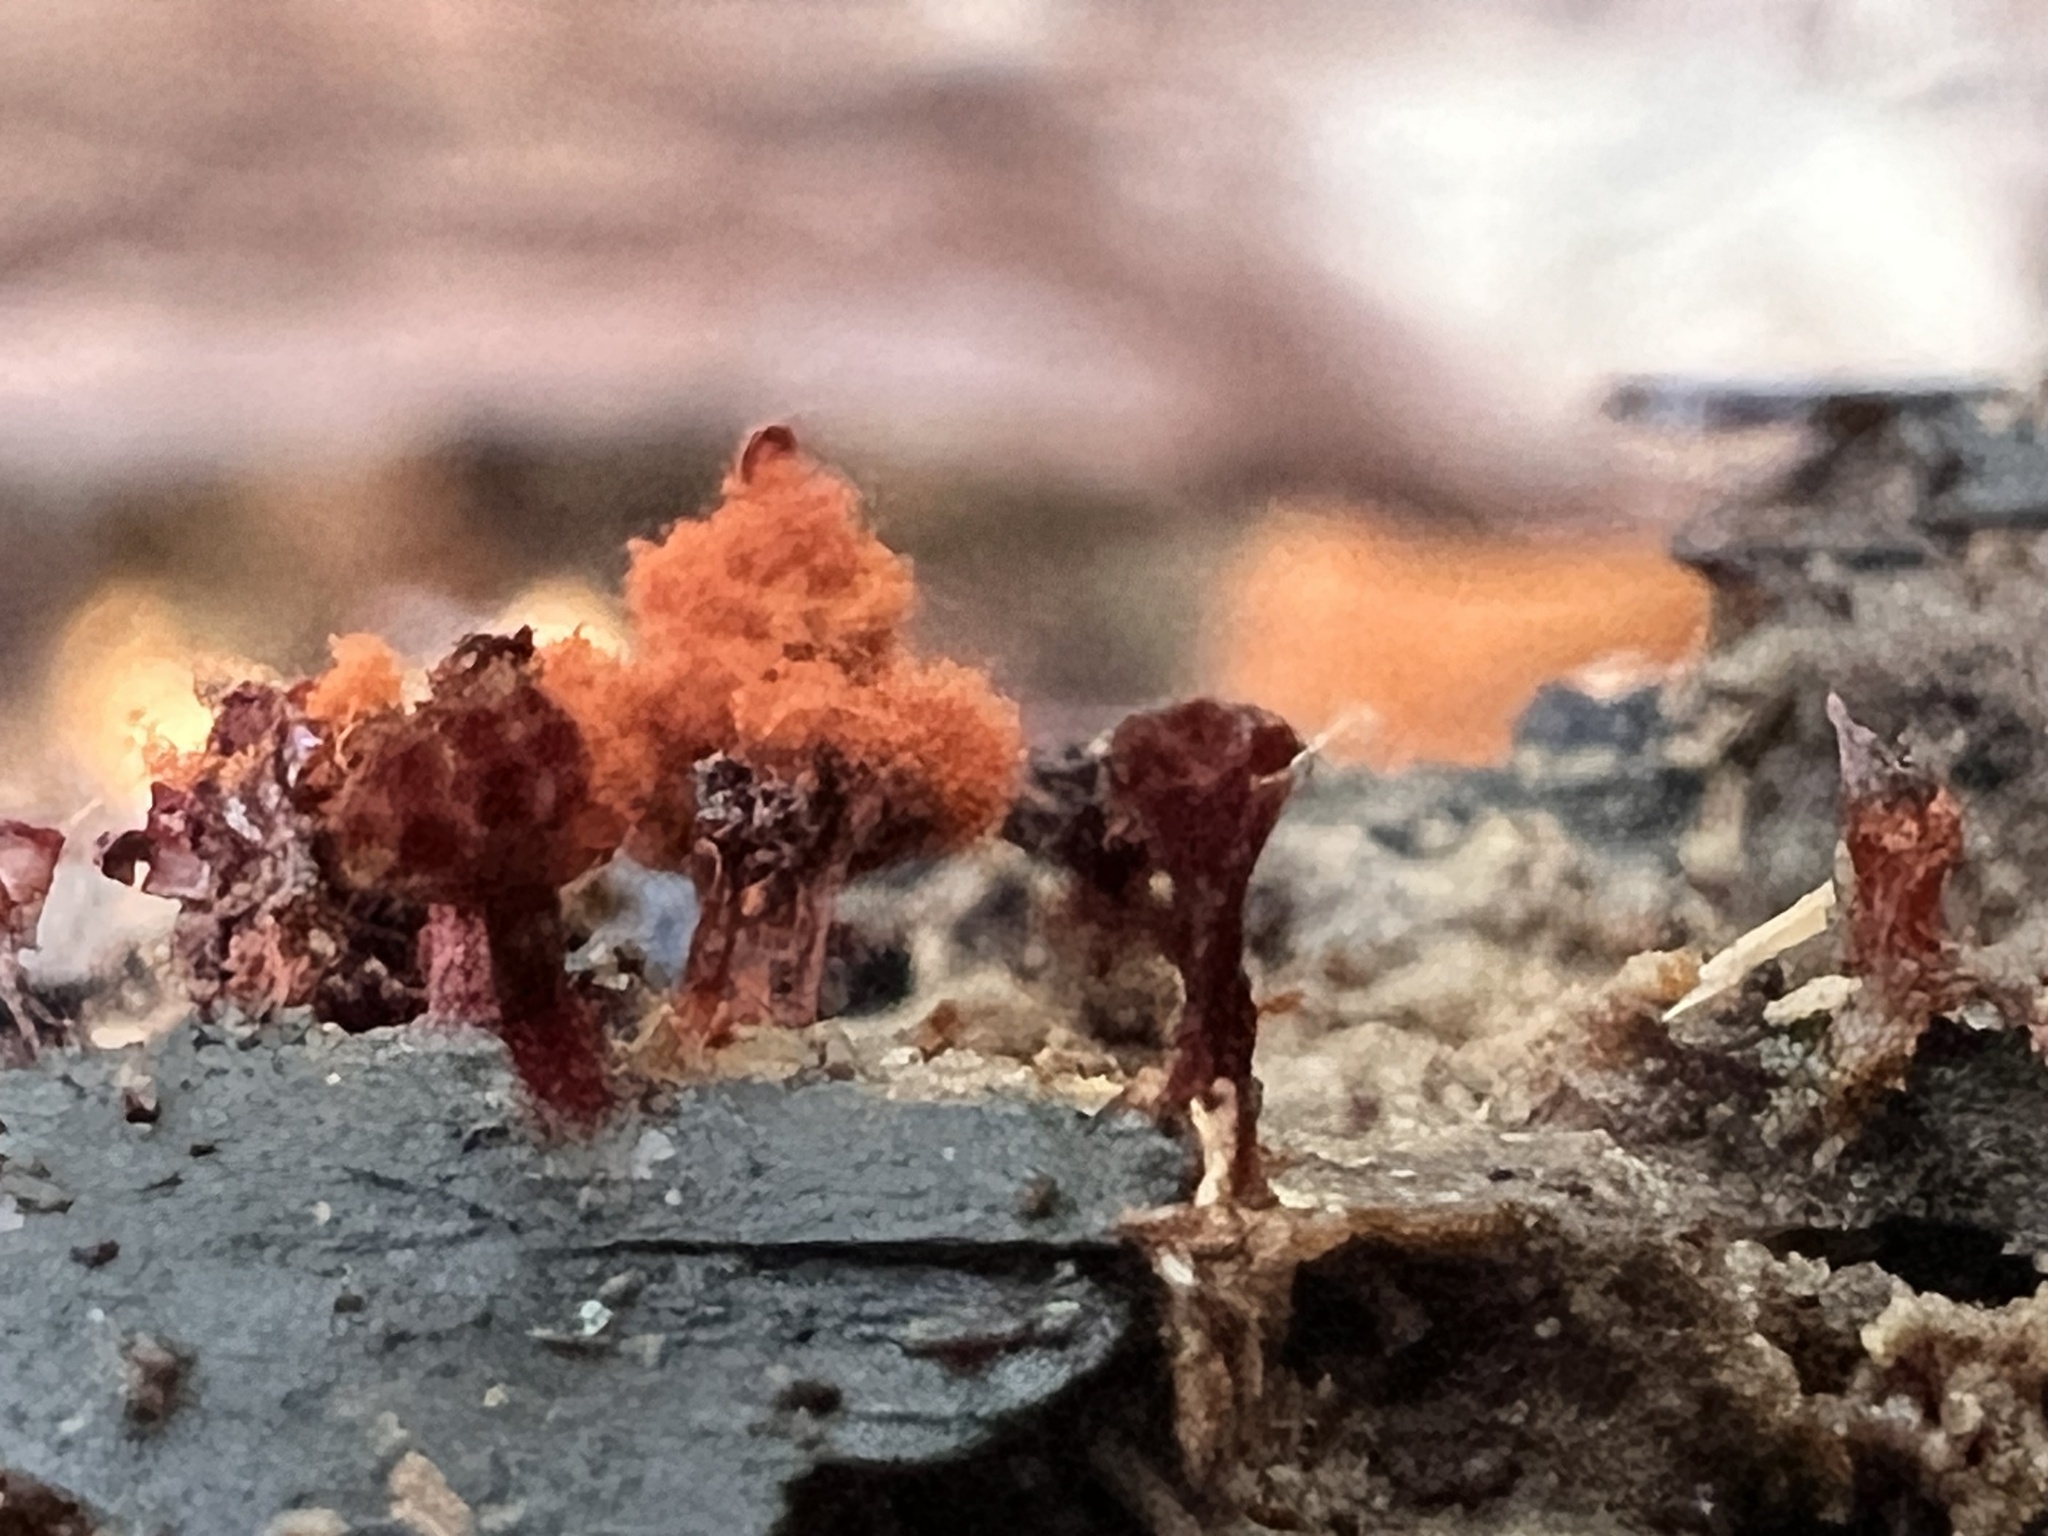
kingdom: Protozoa
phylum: Mycetozoa
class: Myxomycetes
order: Trichiales
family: Trichiaceae
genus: Metatrichia
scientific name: Metatrichia vesparia
